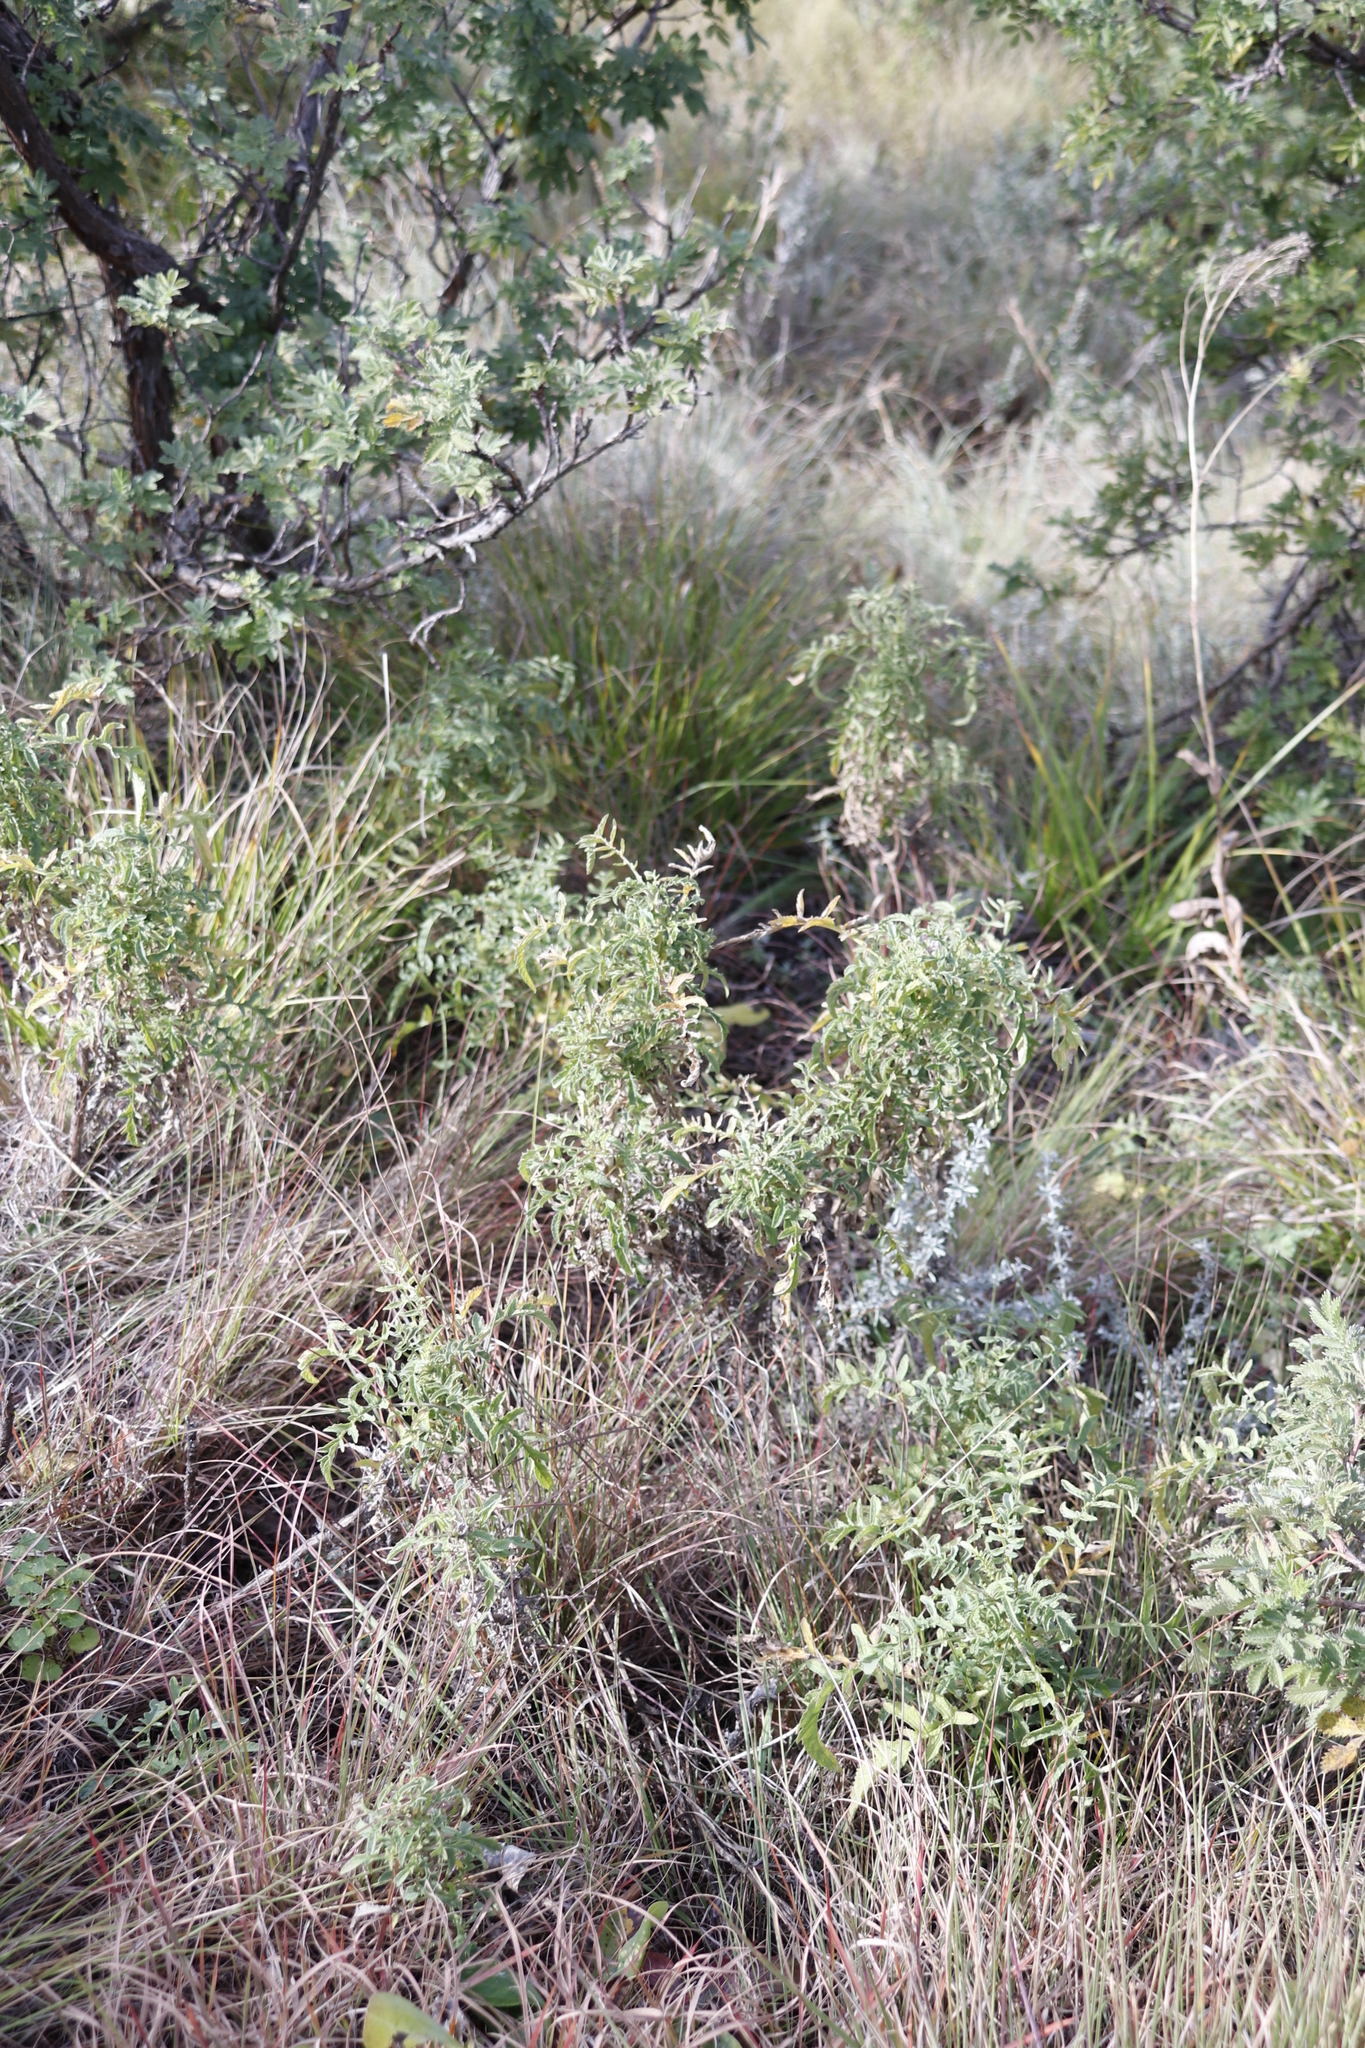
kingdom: Plantae
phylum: Tracheophyta
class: Magnoliopsida
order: Asterales
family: Asteraceae
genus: Heteromma
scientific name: Heteromma decurrens
